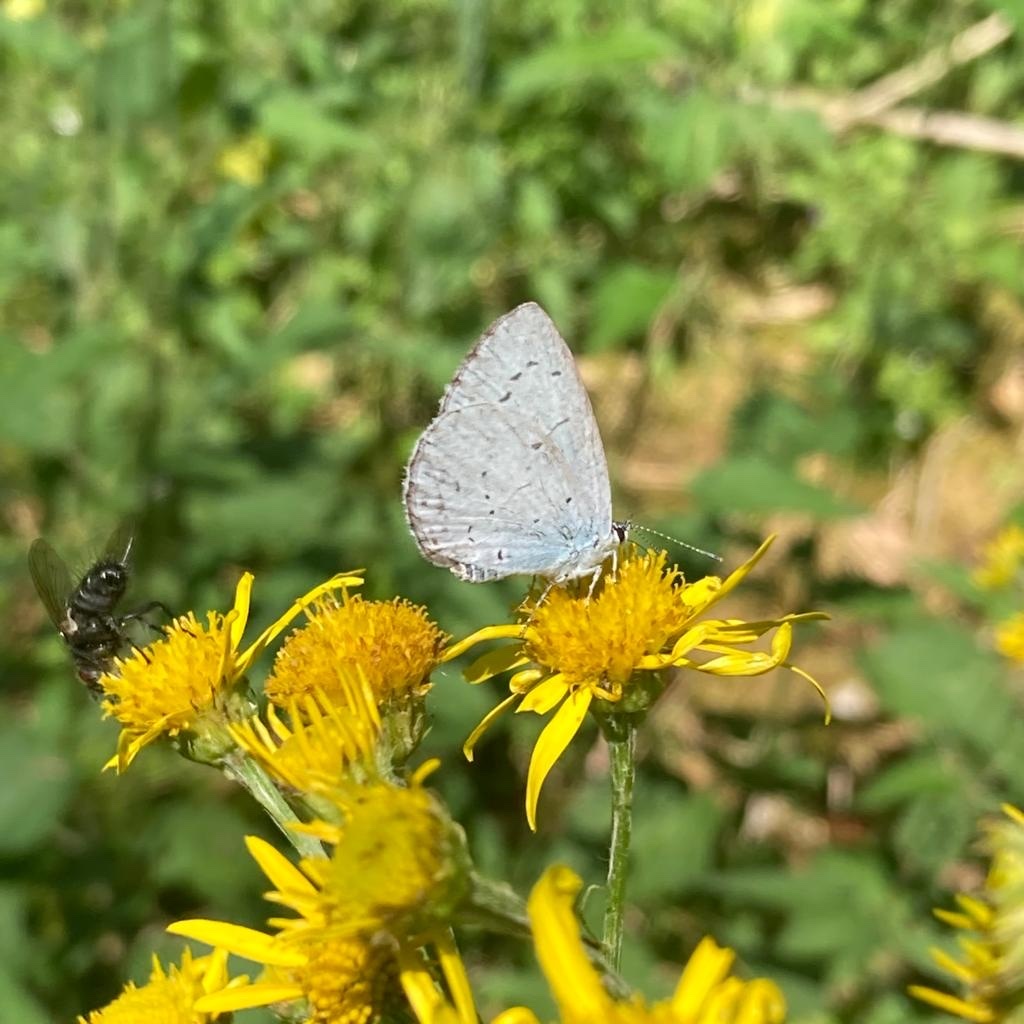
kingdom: Animalia
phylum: Arthropoda
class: Insecta
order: Lepidoptera
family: Lycaenidae
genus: Celastrina
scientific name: Celastrina argiolus
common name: Holly blue
